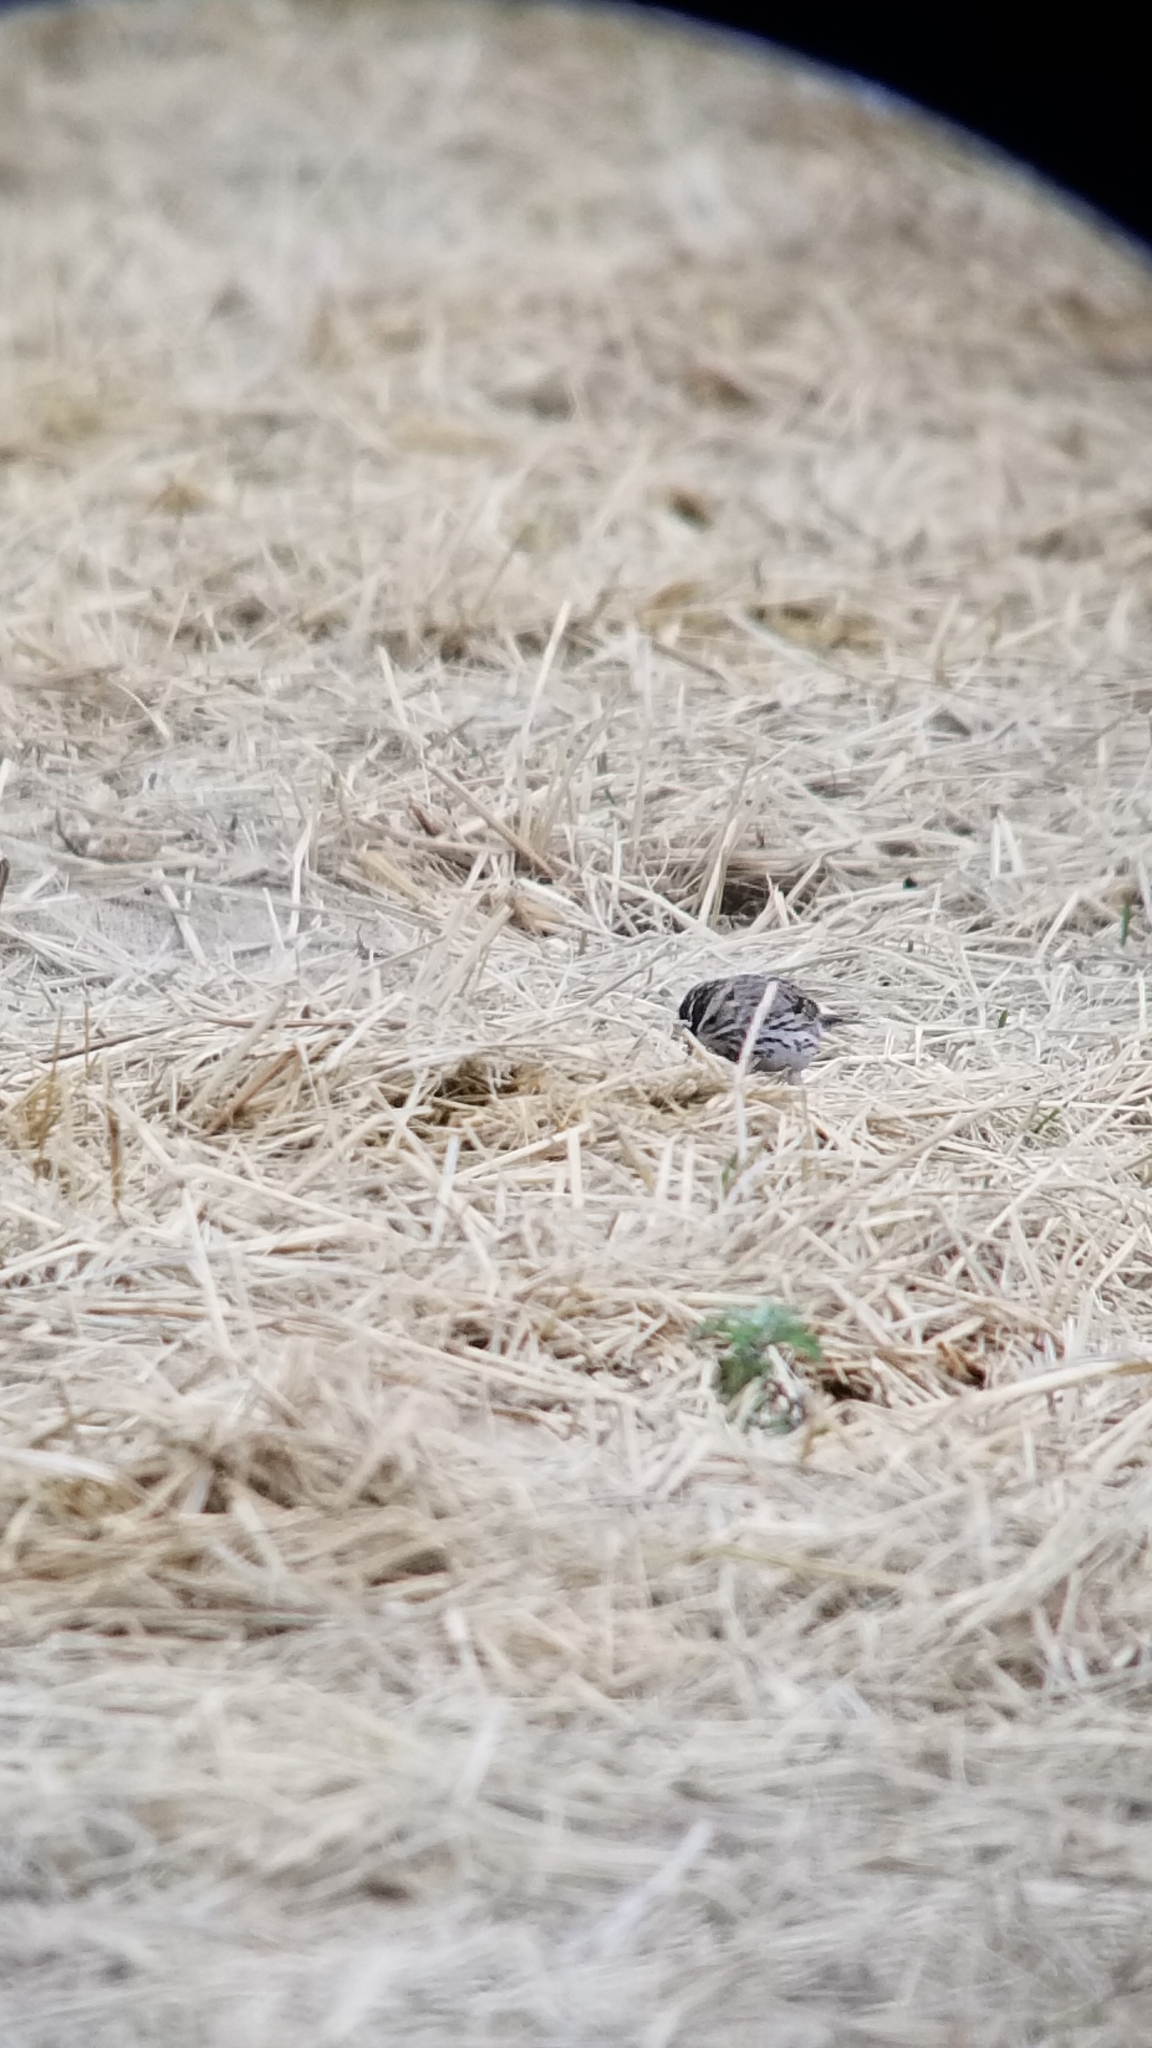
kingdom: Animalia
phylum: Chordata
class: Aves
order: Passeriformes
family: Passerellidae
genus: Passerculus
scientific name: Passerculus sandwichensis
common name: Savannah sparrow
